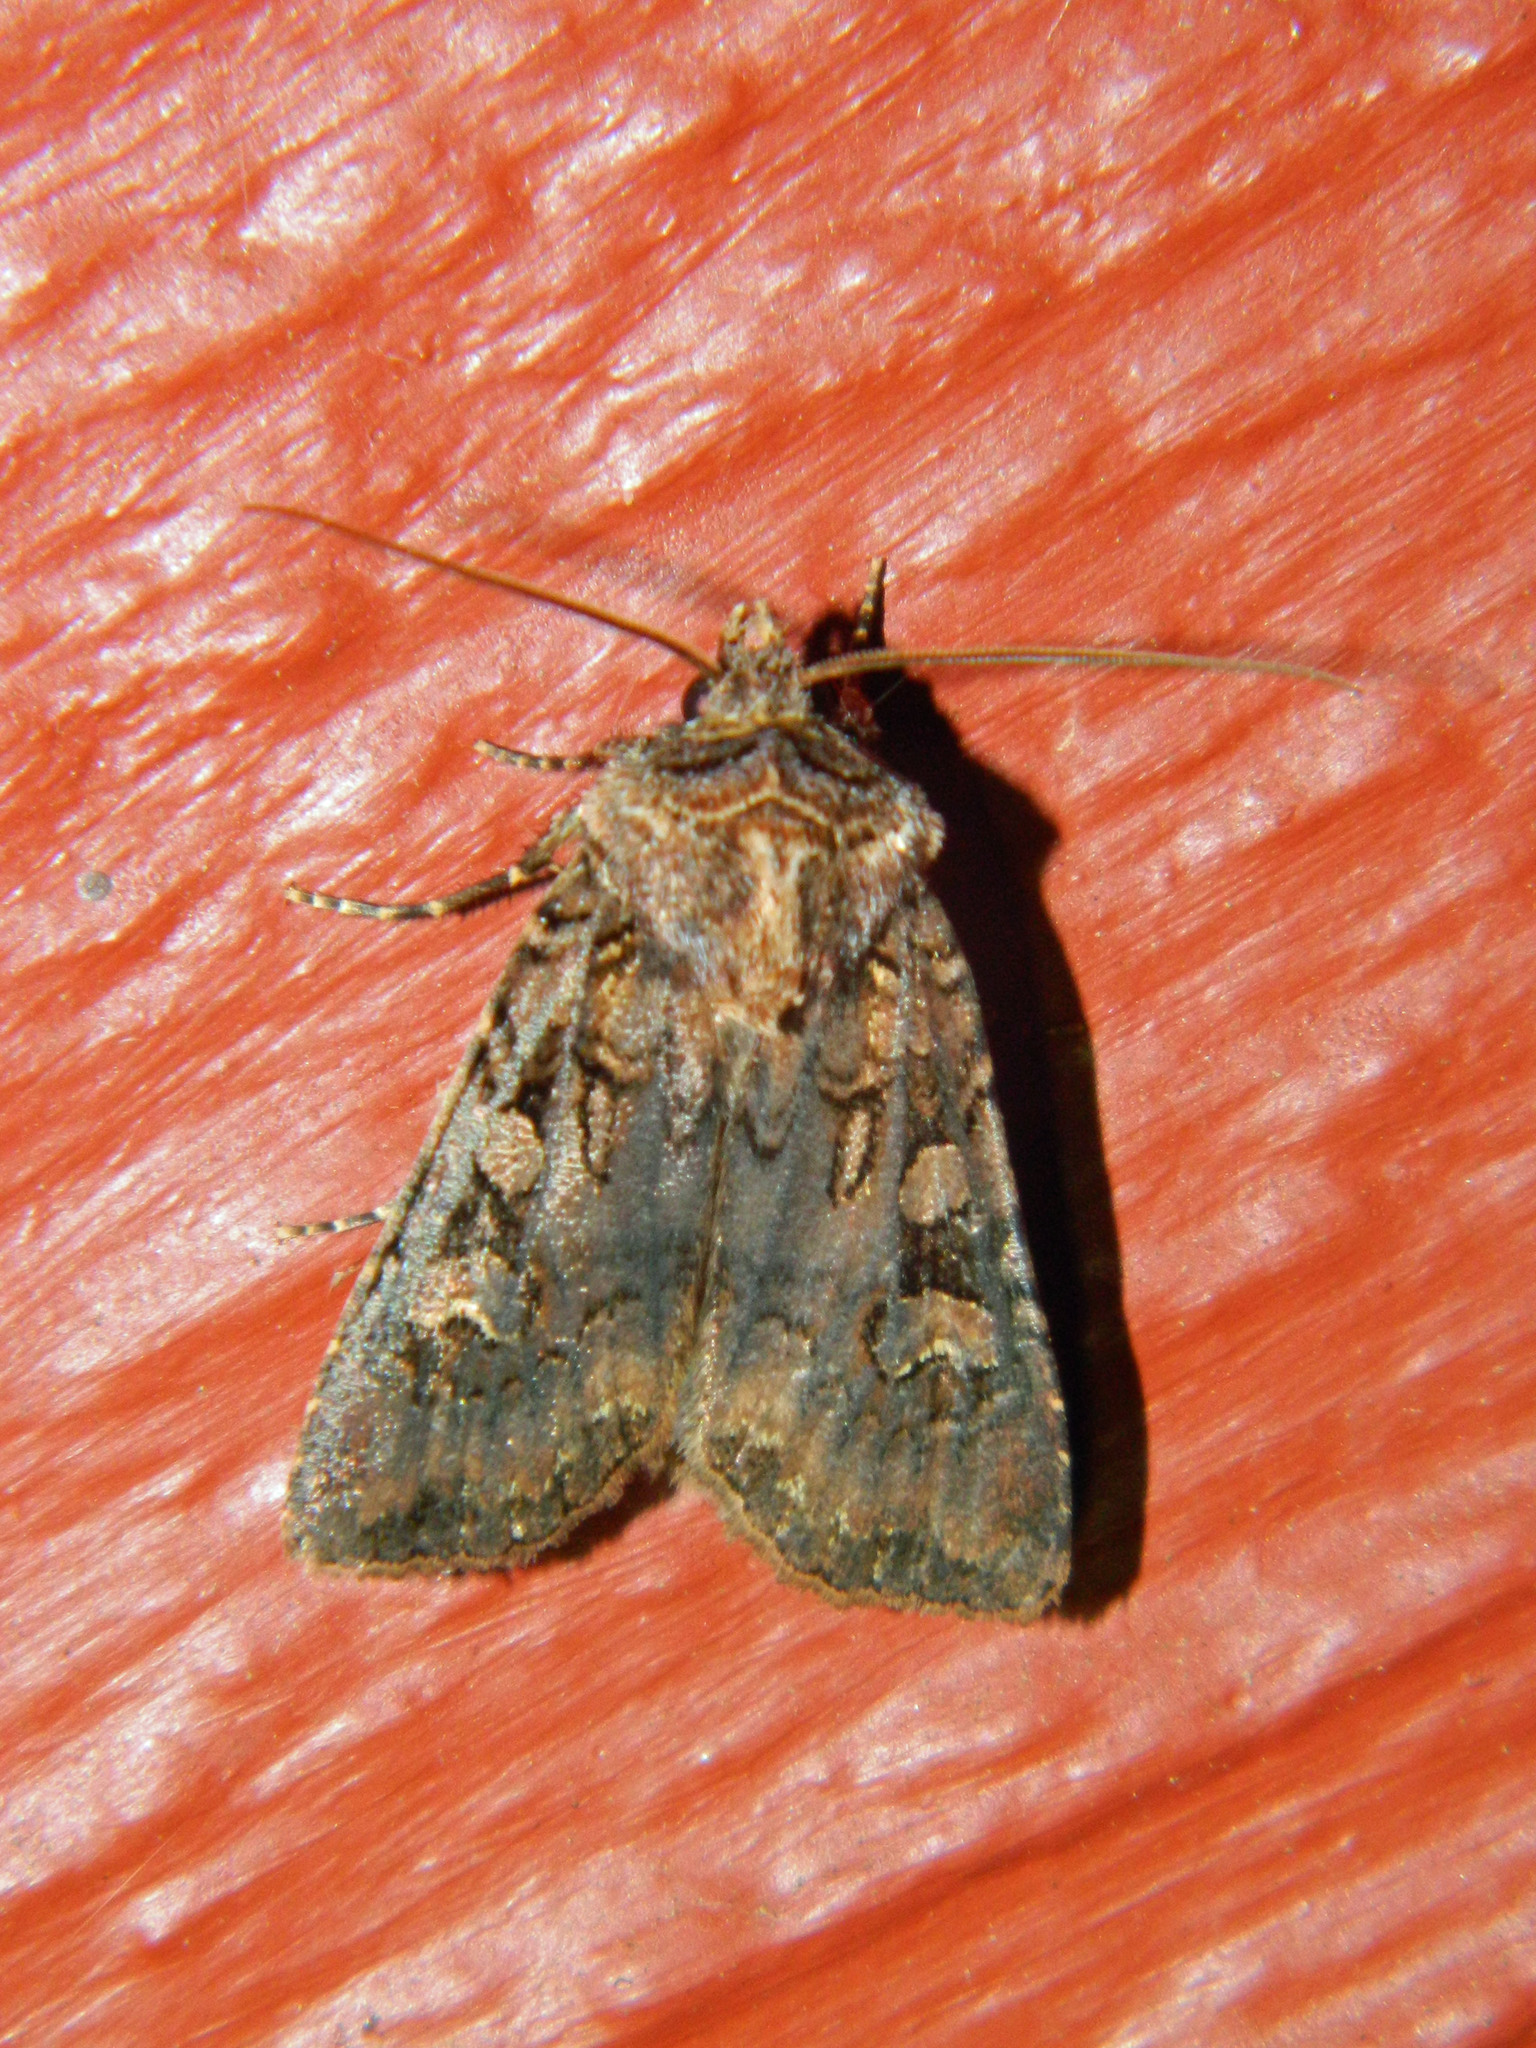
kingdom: Animalia
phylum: Arthropoda
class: Insecta
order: Lepidoptera
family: Noctuidae
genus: Euxoa
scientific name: Euxoa tessellata
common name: Striped cutworm
